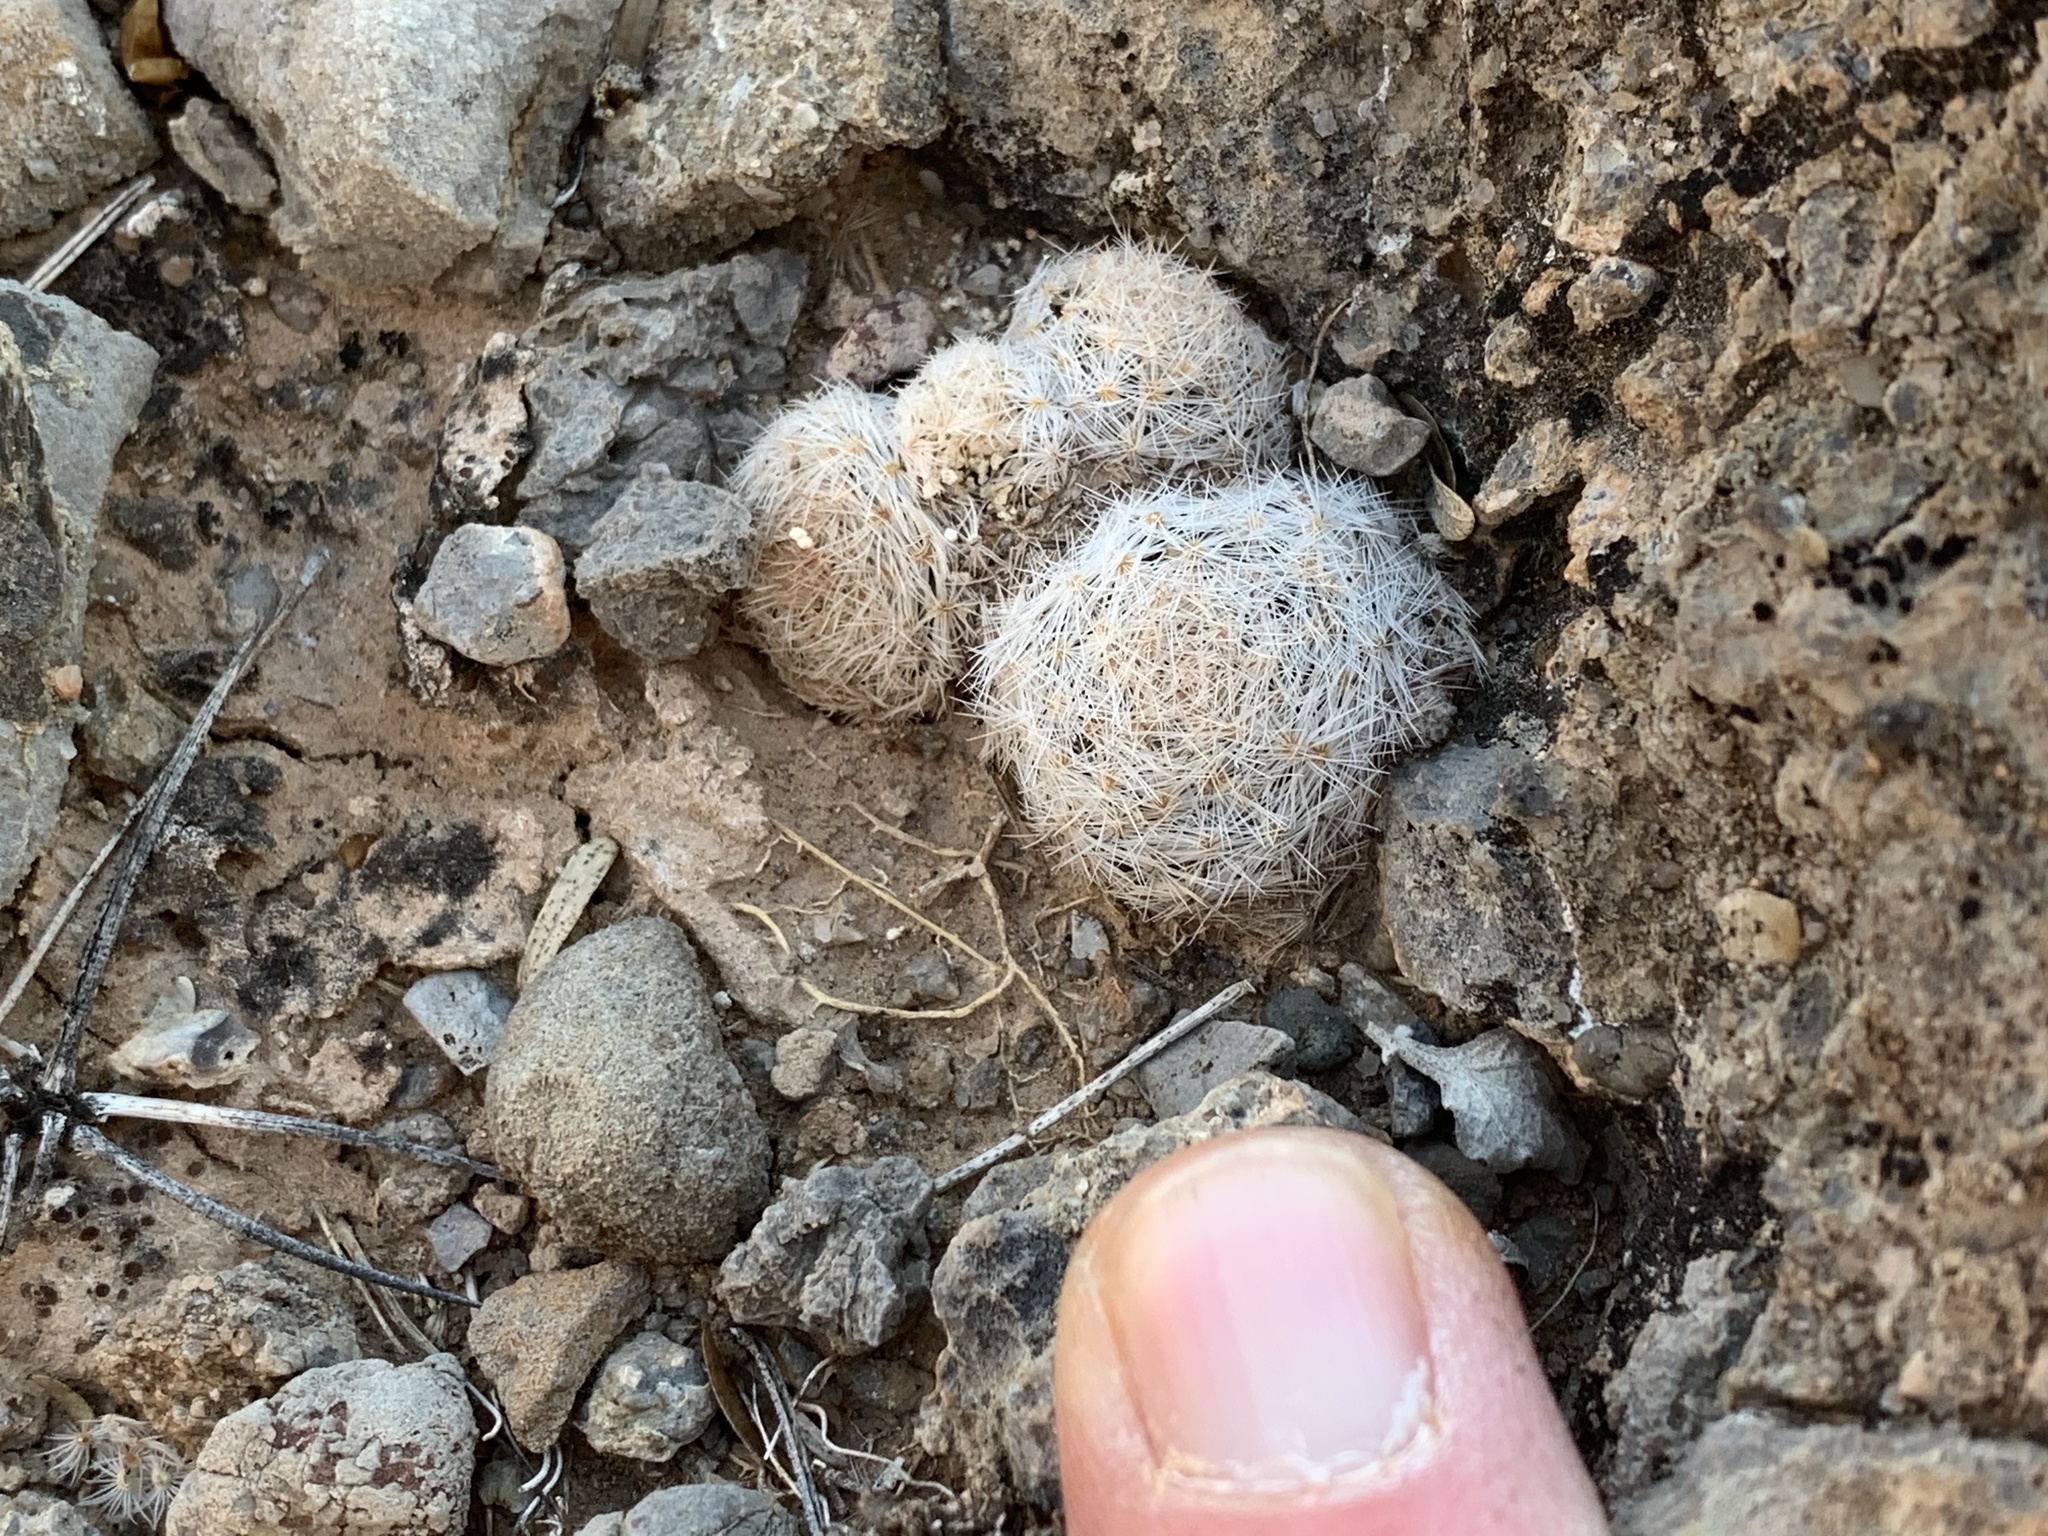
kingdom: Plantae
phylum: Tracheophyta
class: Magnoliopsida
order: Caryophyllales
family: Cactaceae
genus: Mammillaria
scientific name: Mammillaria lasiacantha
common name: Lace-spine nipple cactus
